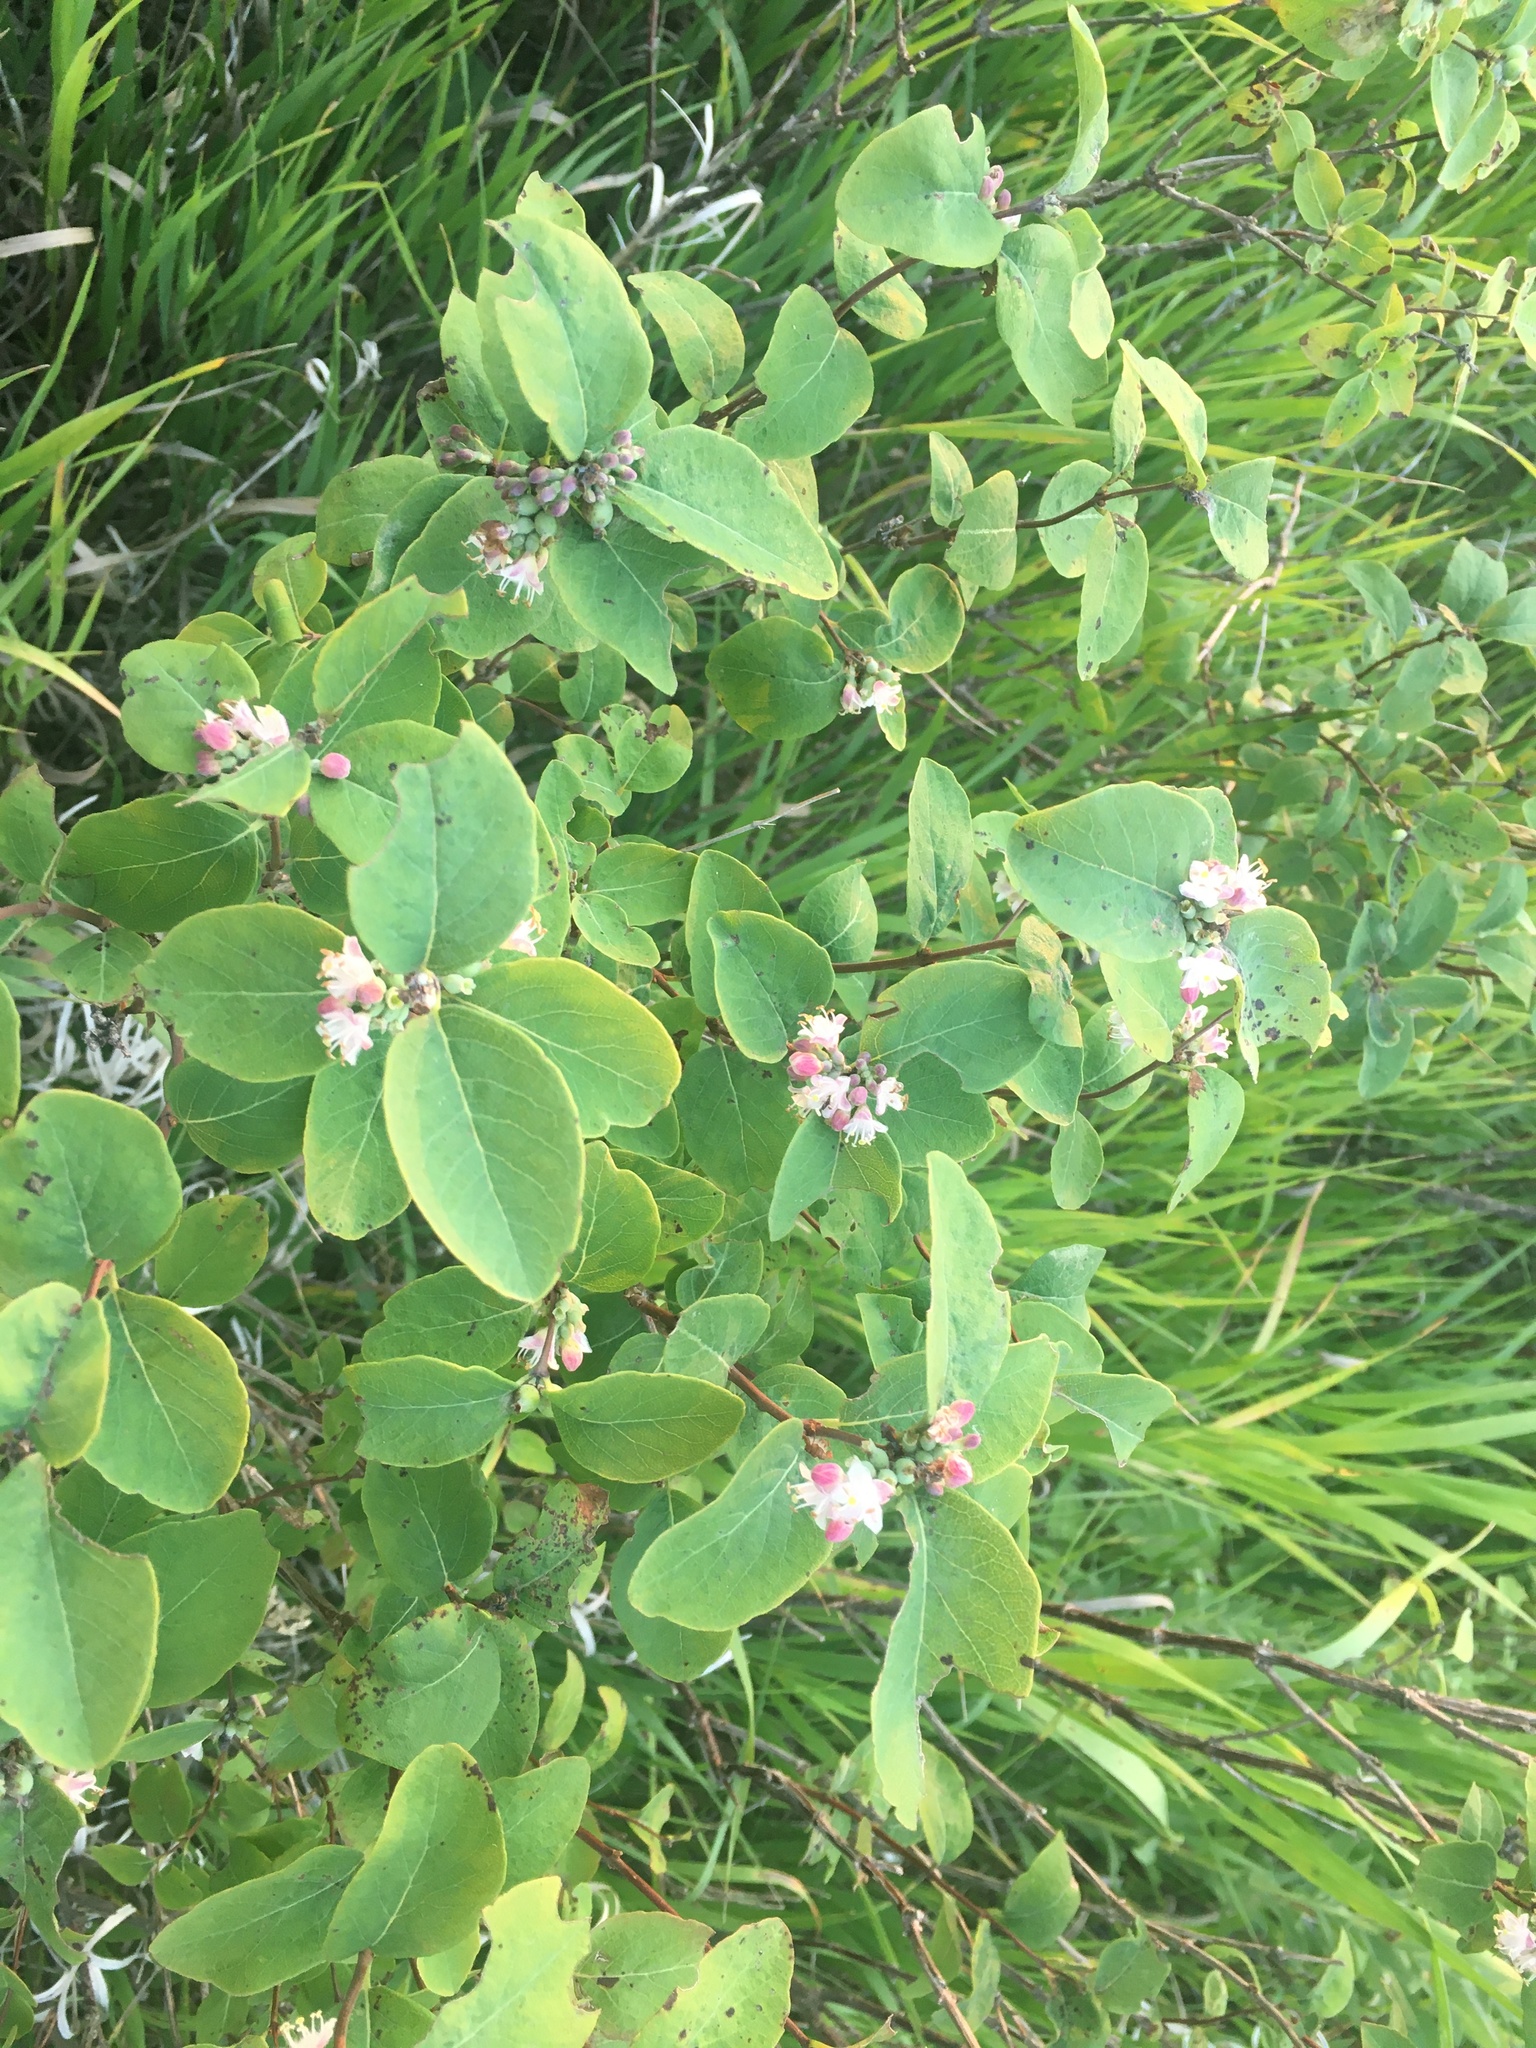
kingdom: Plantae
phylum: Tracheophyta
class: Magnoliopsida
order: Dipsacales
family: Caprifoliaceae
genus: Symphoricarpos
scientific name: Symphoricarpos occidentalis
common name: Wolfberry
